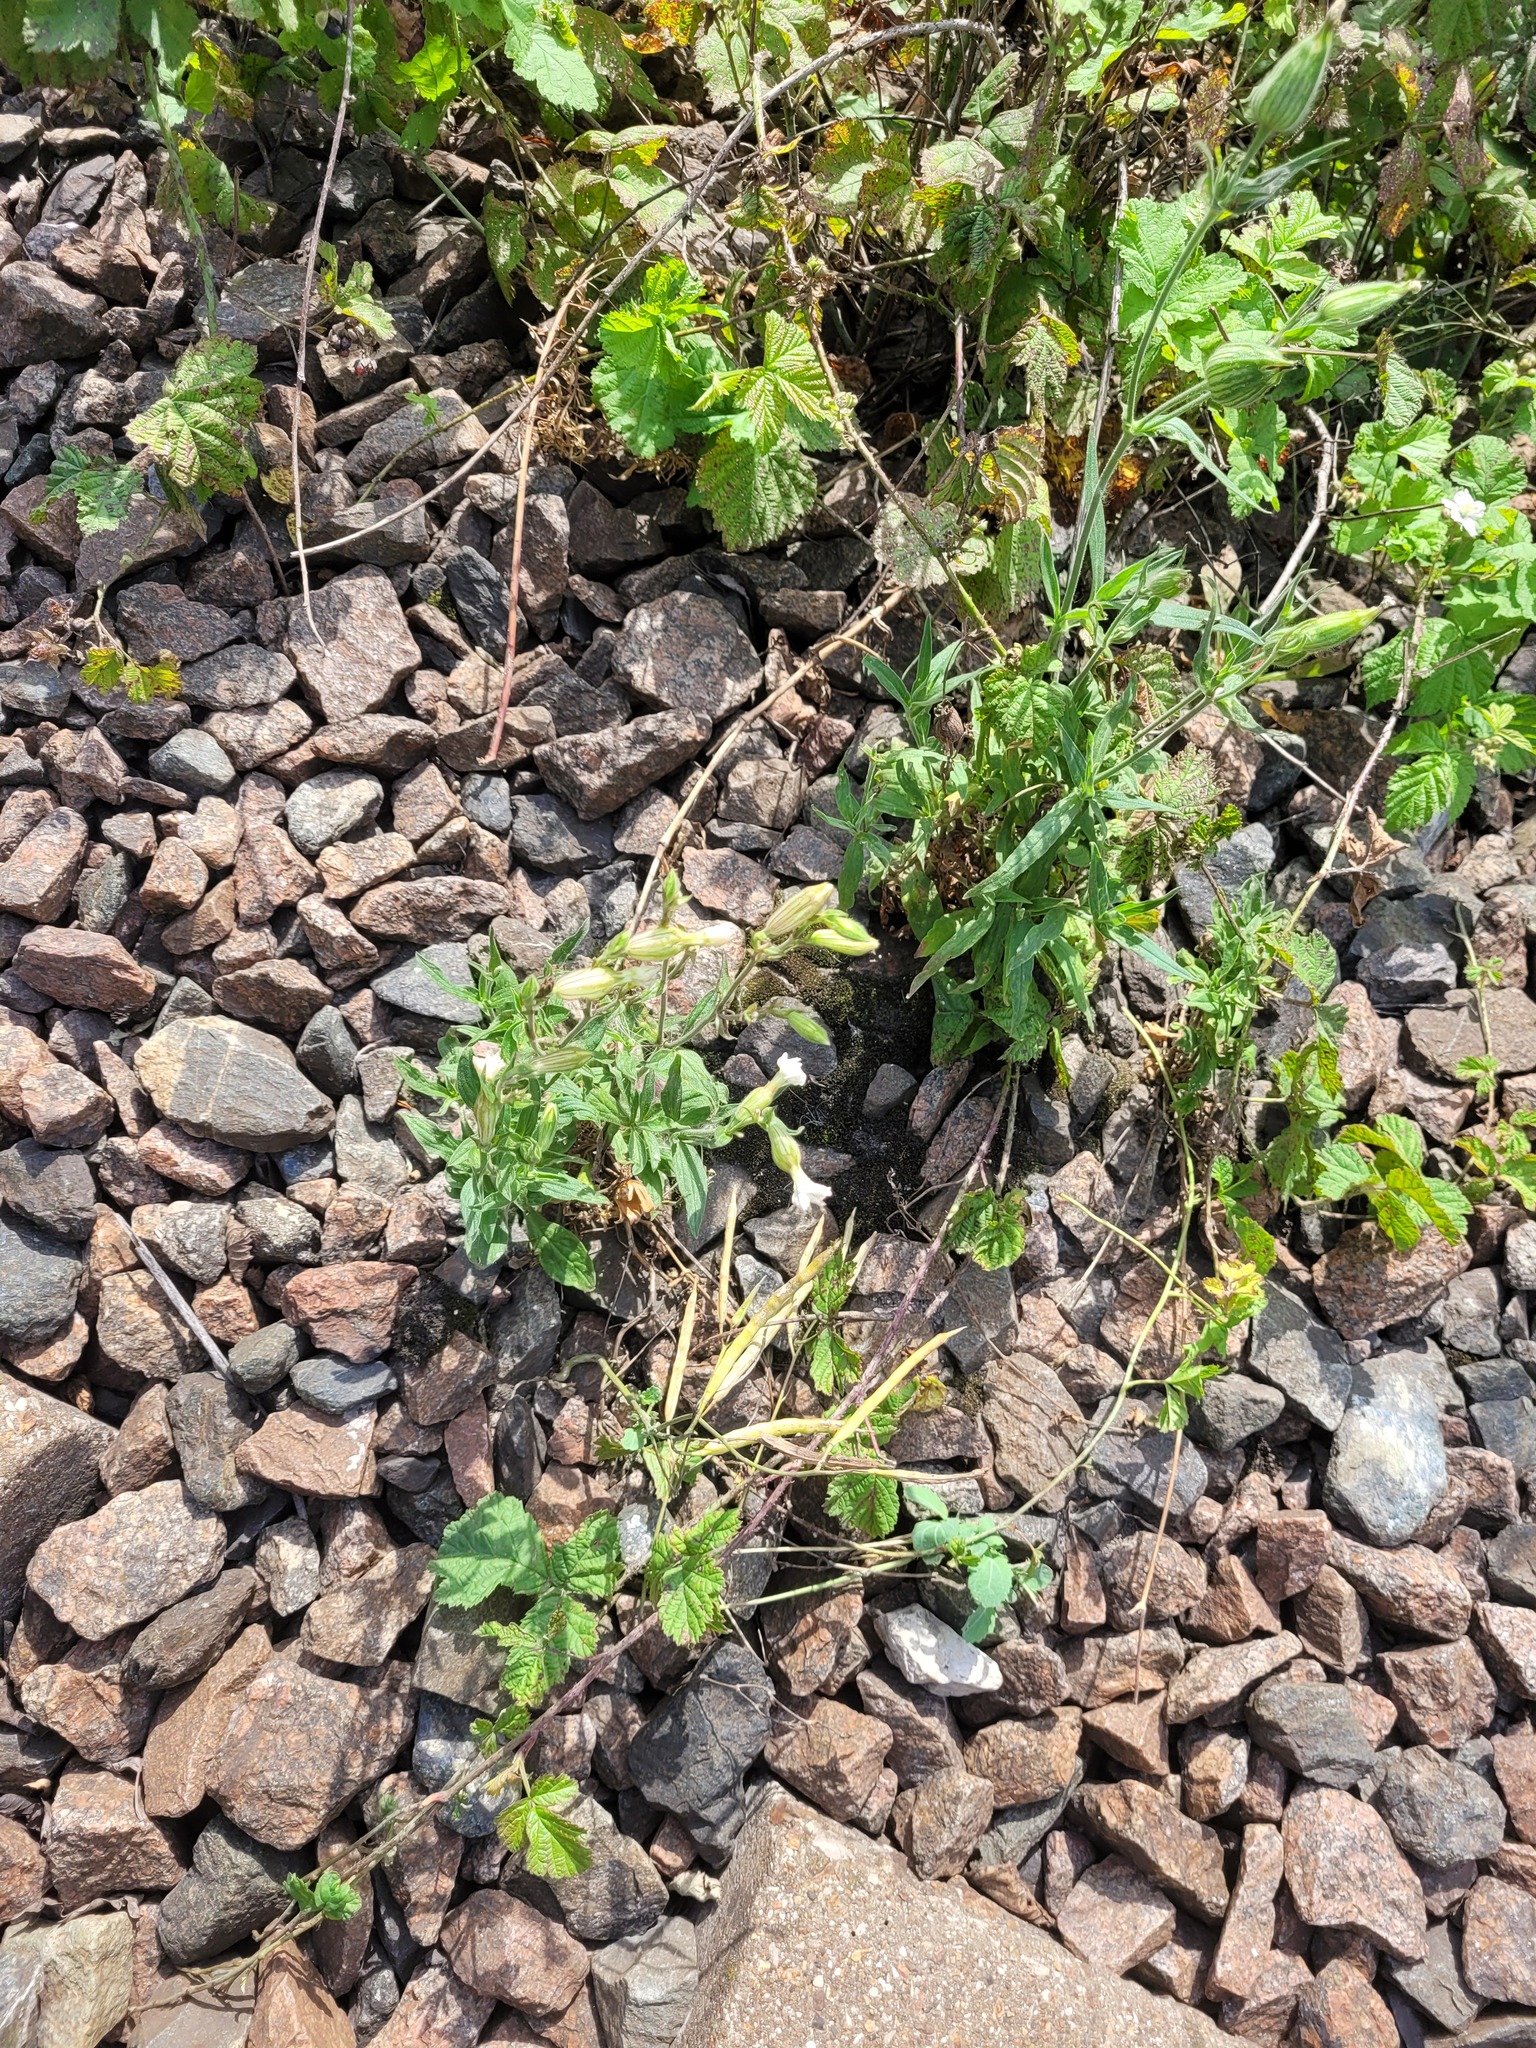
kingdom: Plantae
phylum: Tracheophyta
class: Magnoliopsida
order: Caryophyllales
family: Caryophyllaceae
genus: Silene
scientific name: Silene latifolia
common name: White campion
